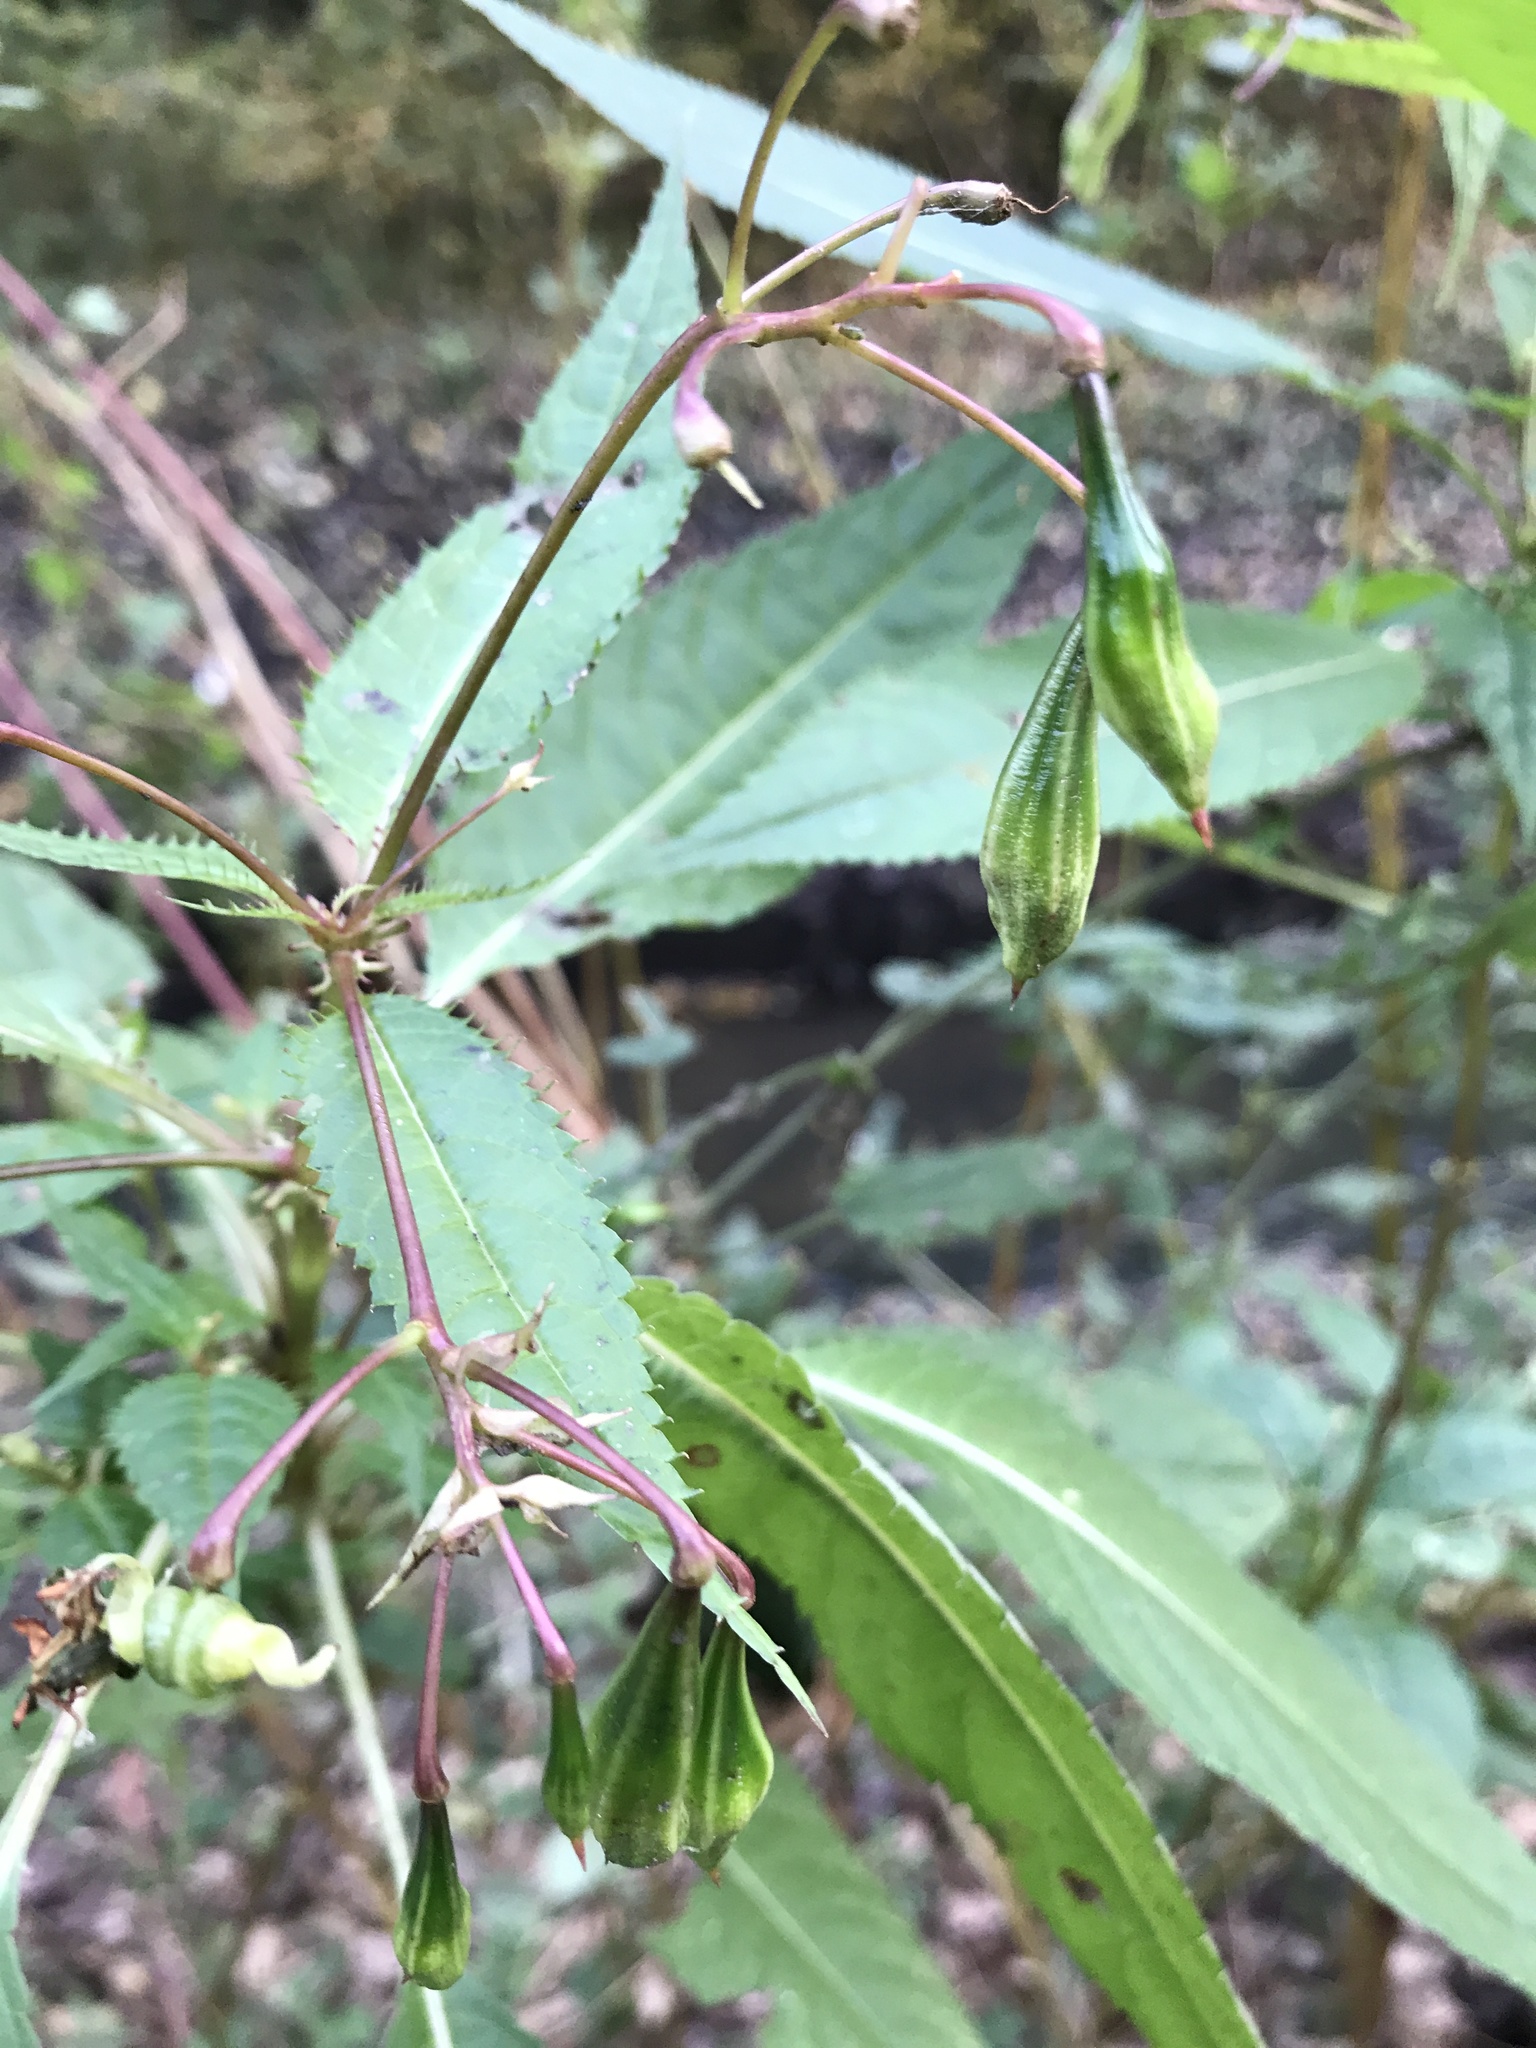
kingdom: Plantae
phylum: Tracheophyta
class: Magnoliopsida
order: Ericales
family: Balsaminaceae
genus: Impatiens
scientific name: Impatiens glandulifera
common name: Himalayan balsam
